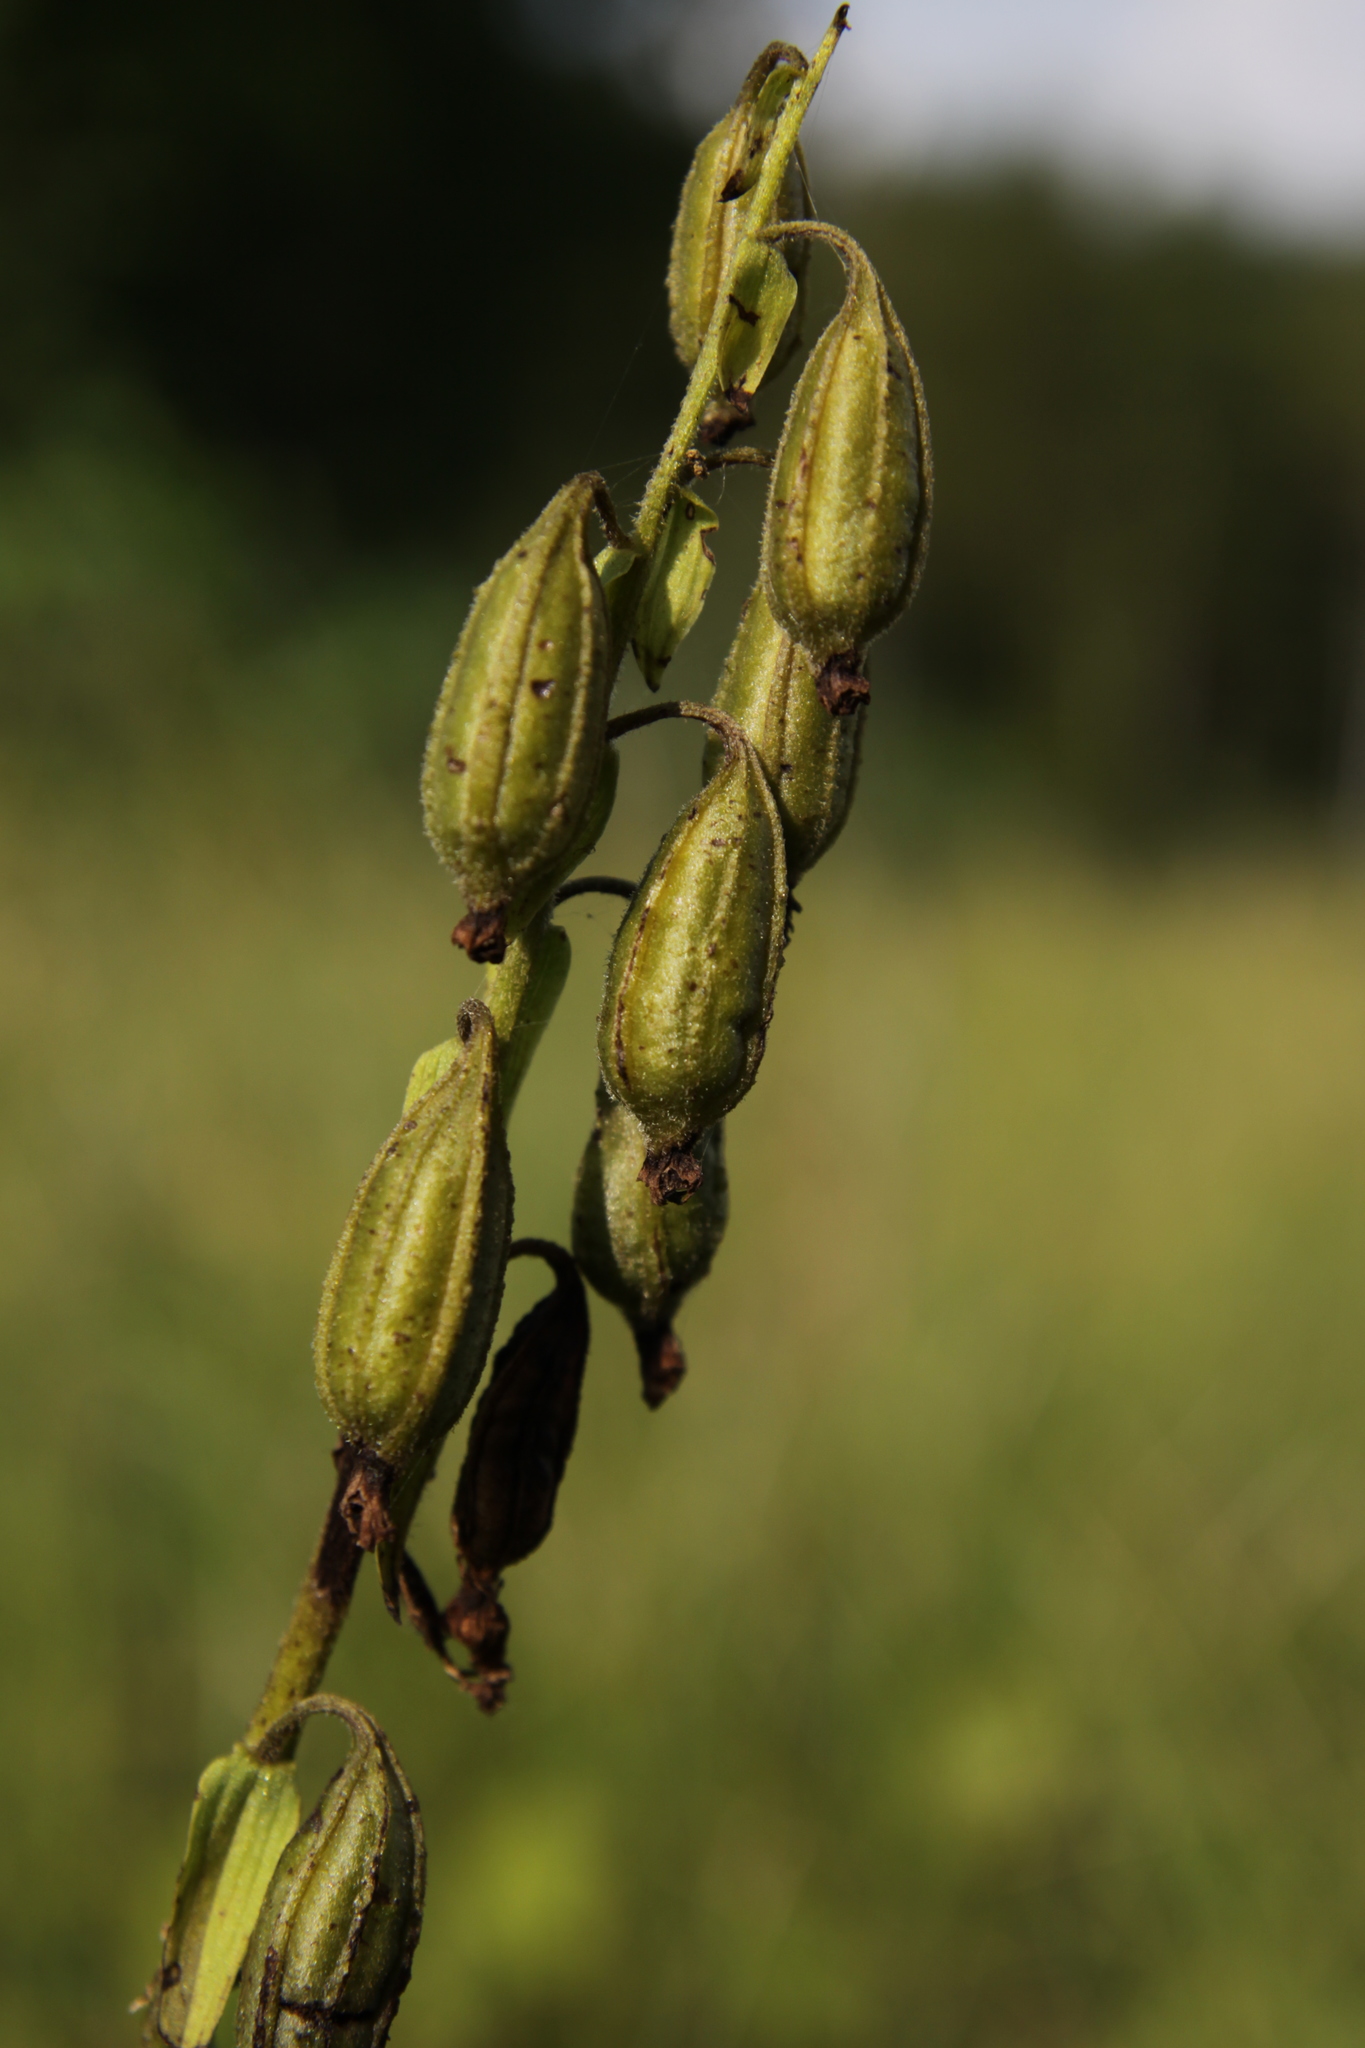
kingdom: Plantae
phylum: Tracheophyta
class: Liliopsida
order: Asparagales
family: Orchidaceae
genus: Epipactis
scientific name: Epipactis palustris
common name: Marsh helleborine
